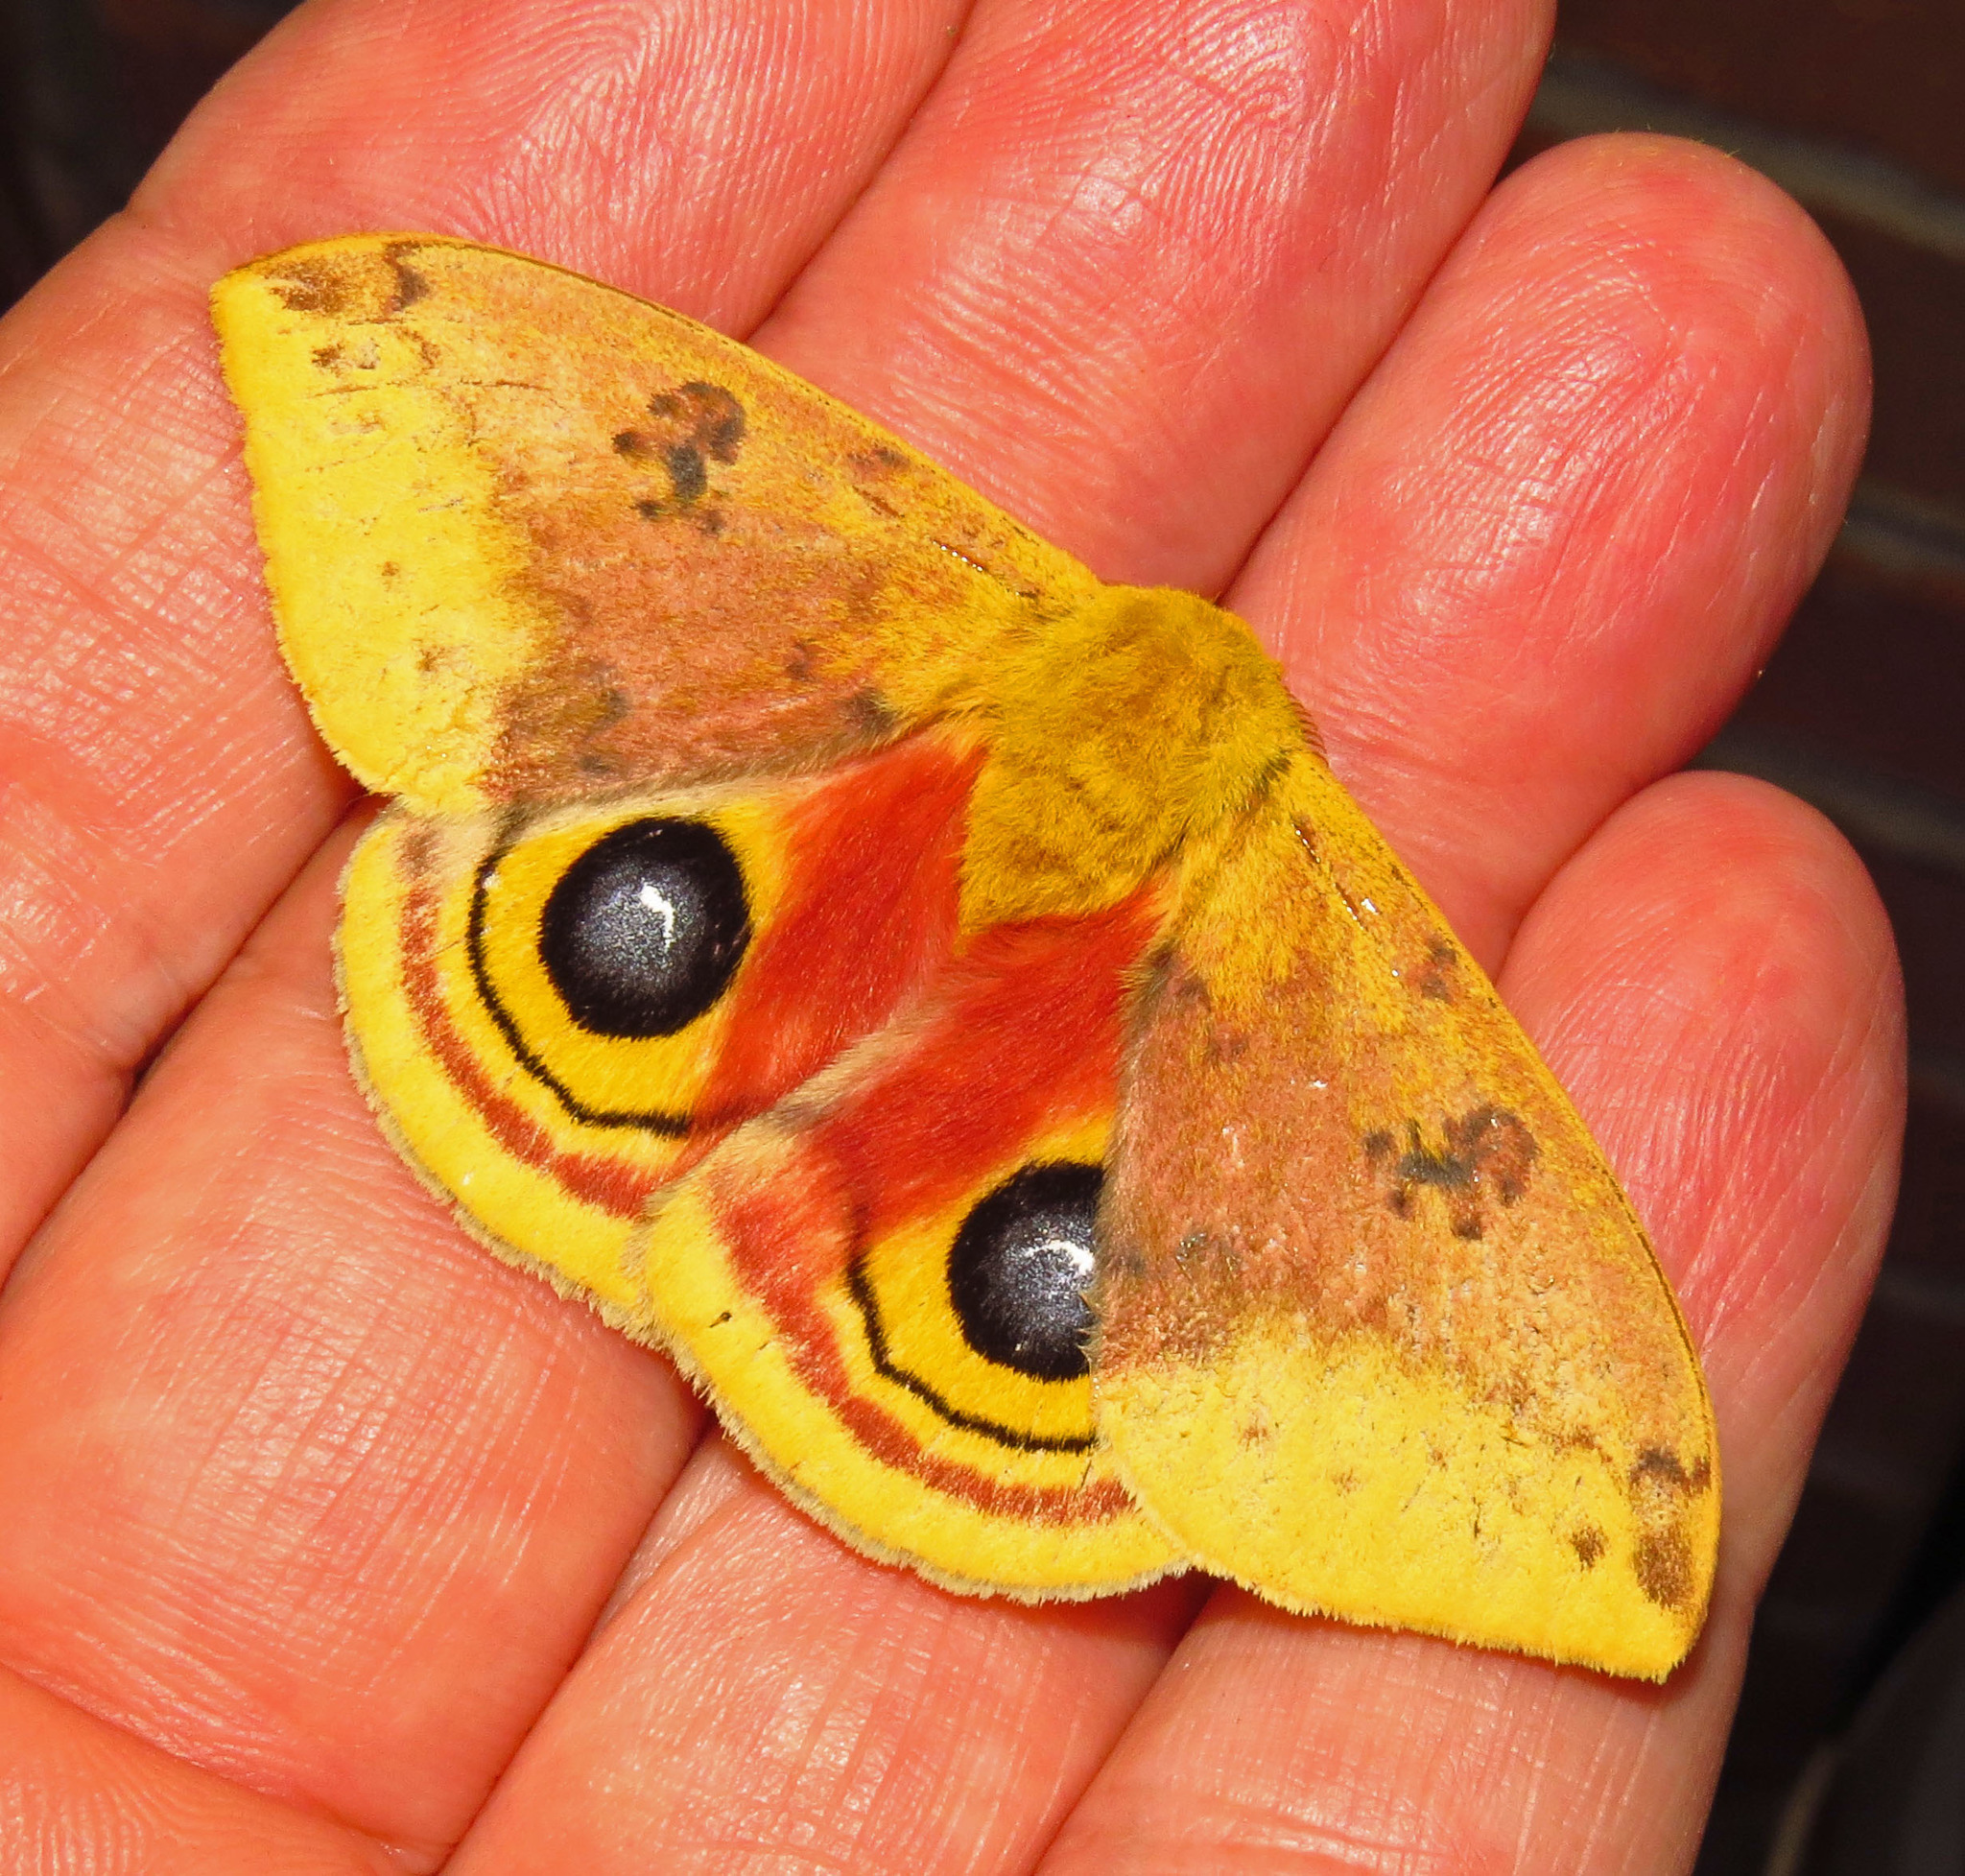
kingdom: Animalia
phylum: Arthropoda
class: Insecta
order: Lepidoptera
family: Saturniidae
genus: Automeris
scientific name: Automeris io
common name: Io moth
